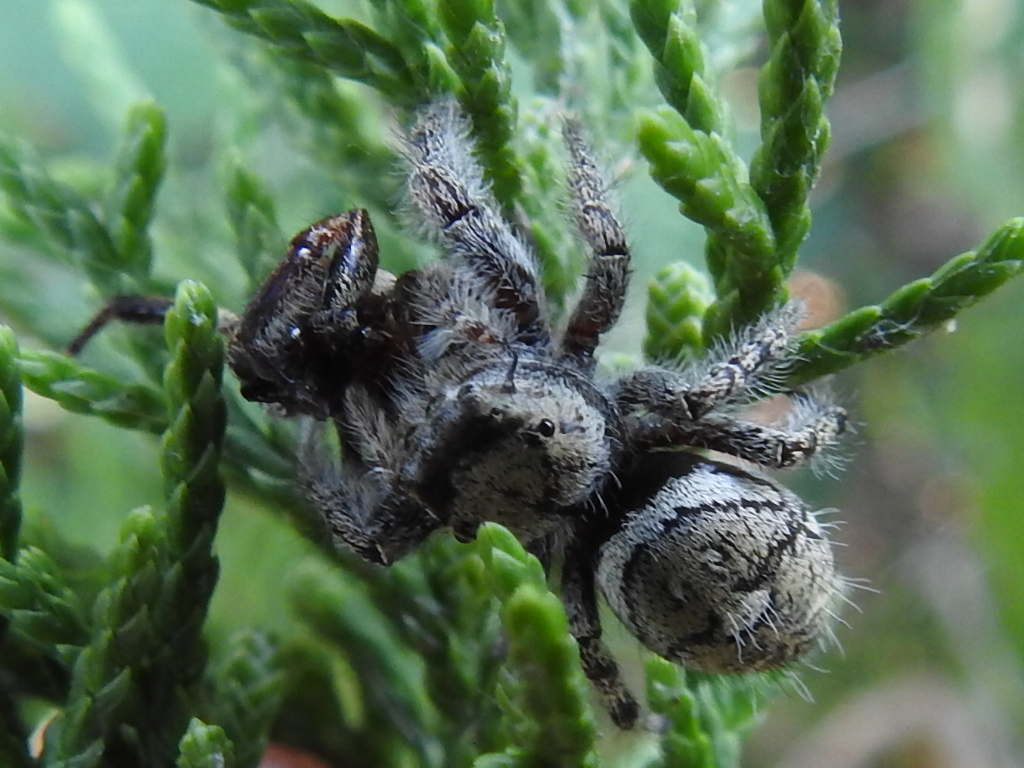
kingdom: Animalia
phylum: Arthropoda
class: Arachnida
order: Araneae
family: Salticidae
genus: Phidippus
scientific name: Phidippus carolinensis
